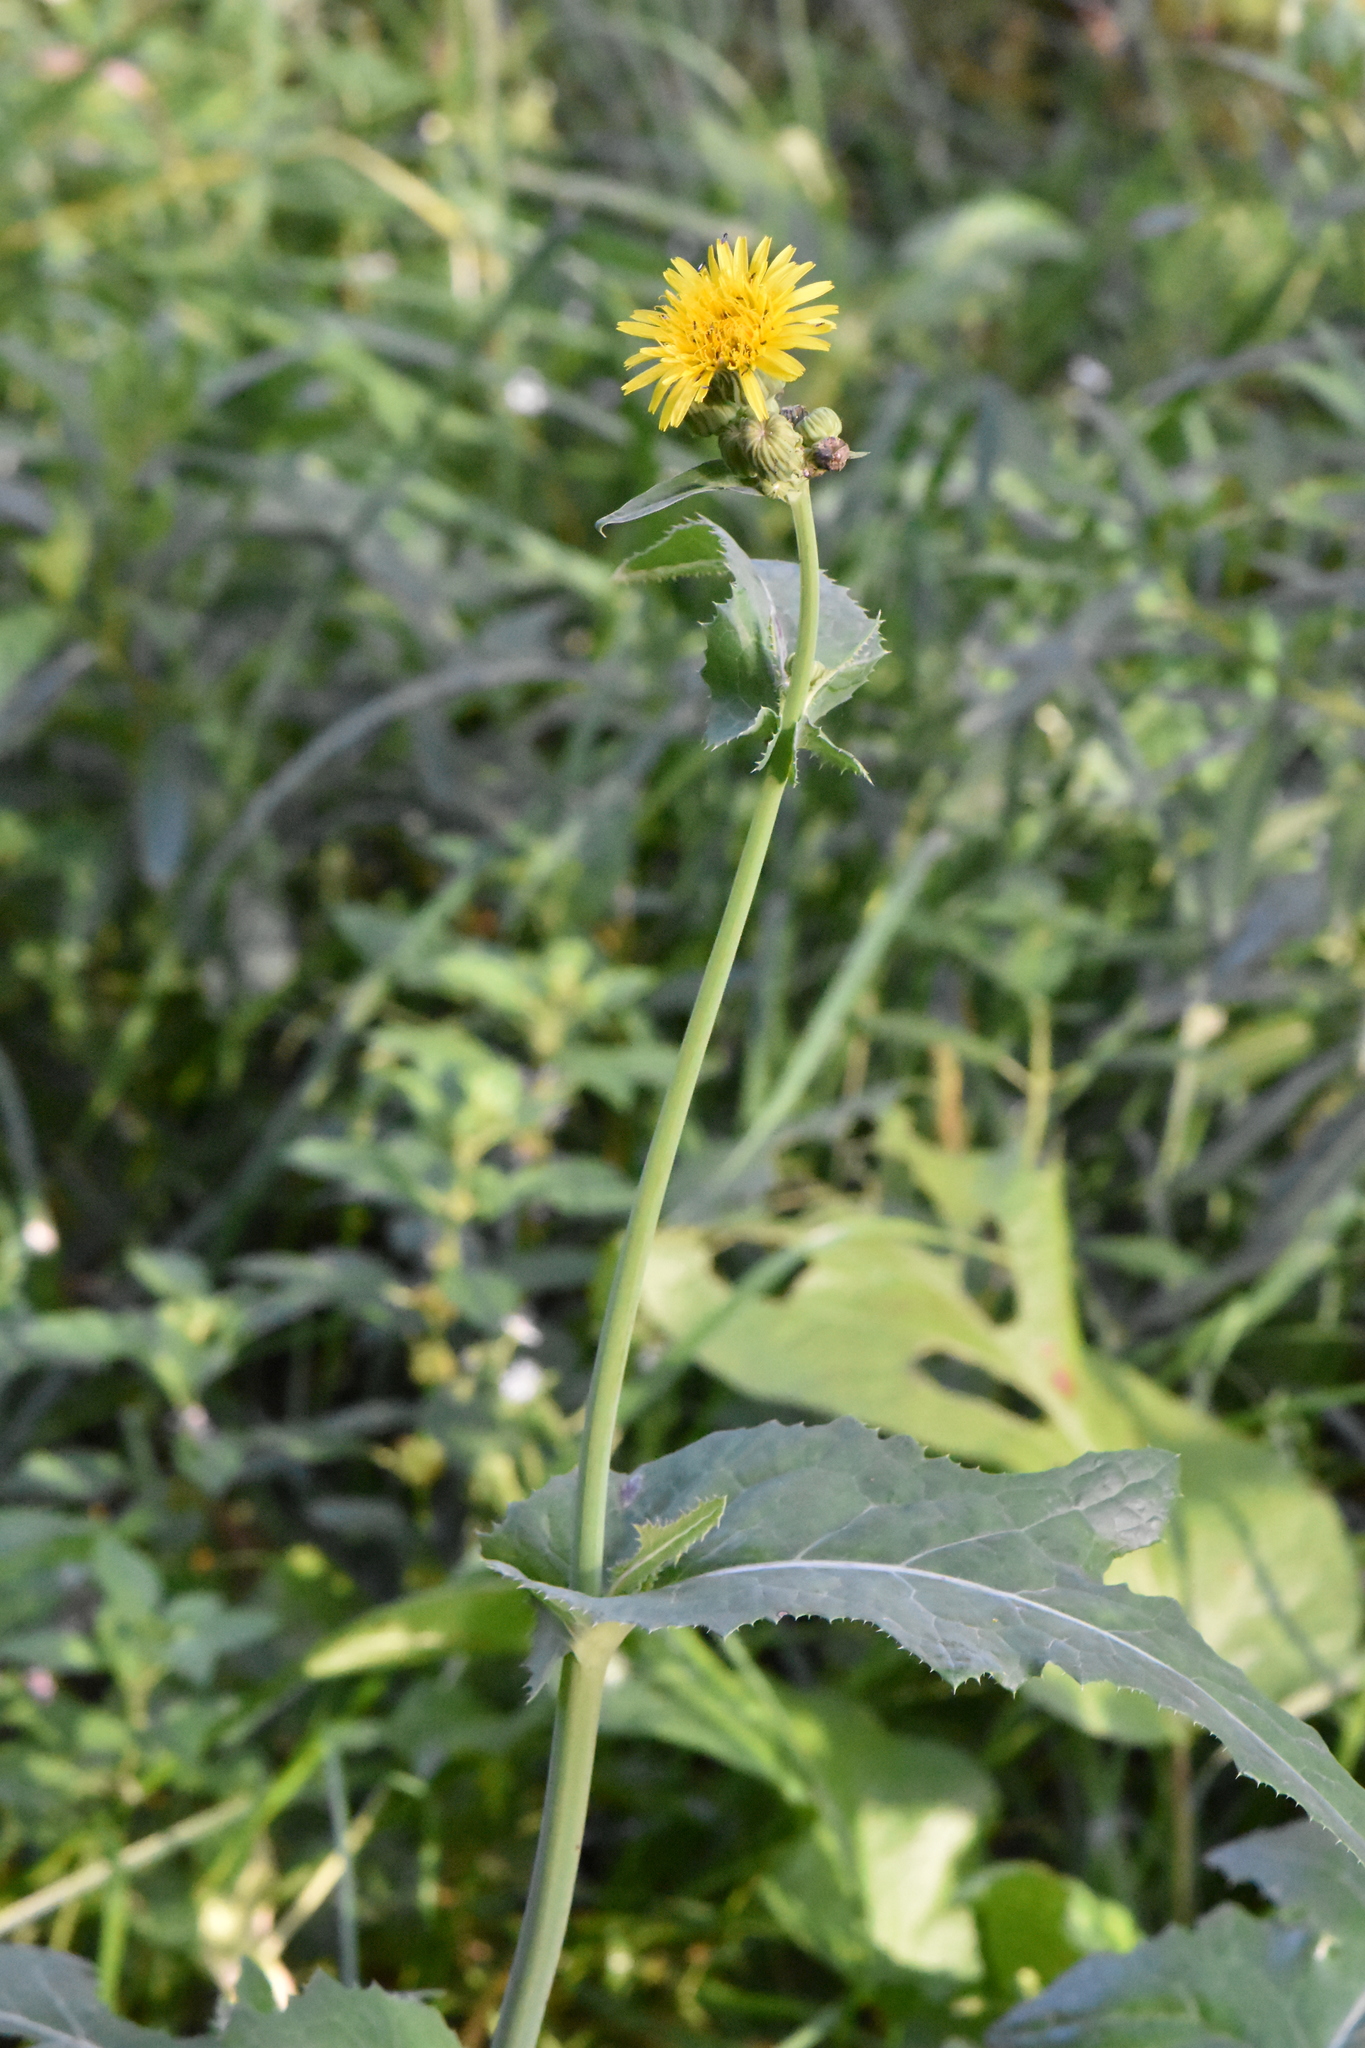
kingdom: Plantae
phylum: Tracheophyta
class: Magnoliopsida
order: Asterales
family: Asteraceae
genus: Sonchus
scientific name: Sonchus arvensis
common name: Perennial sow-thistle
